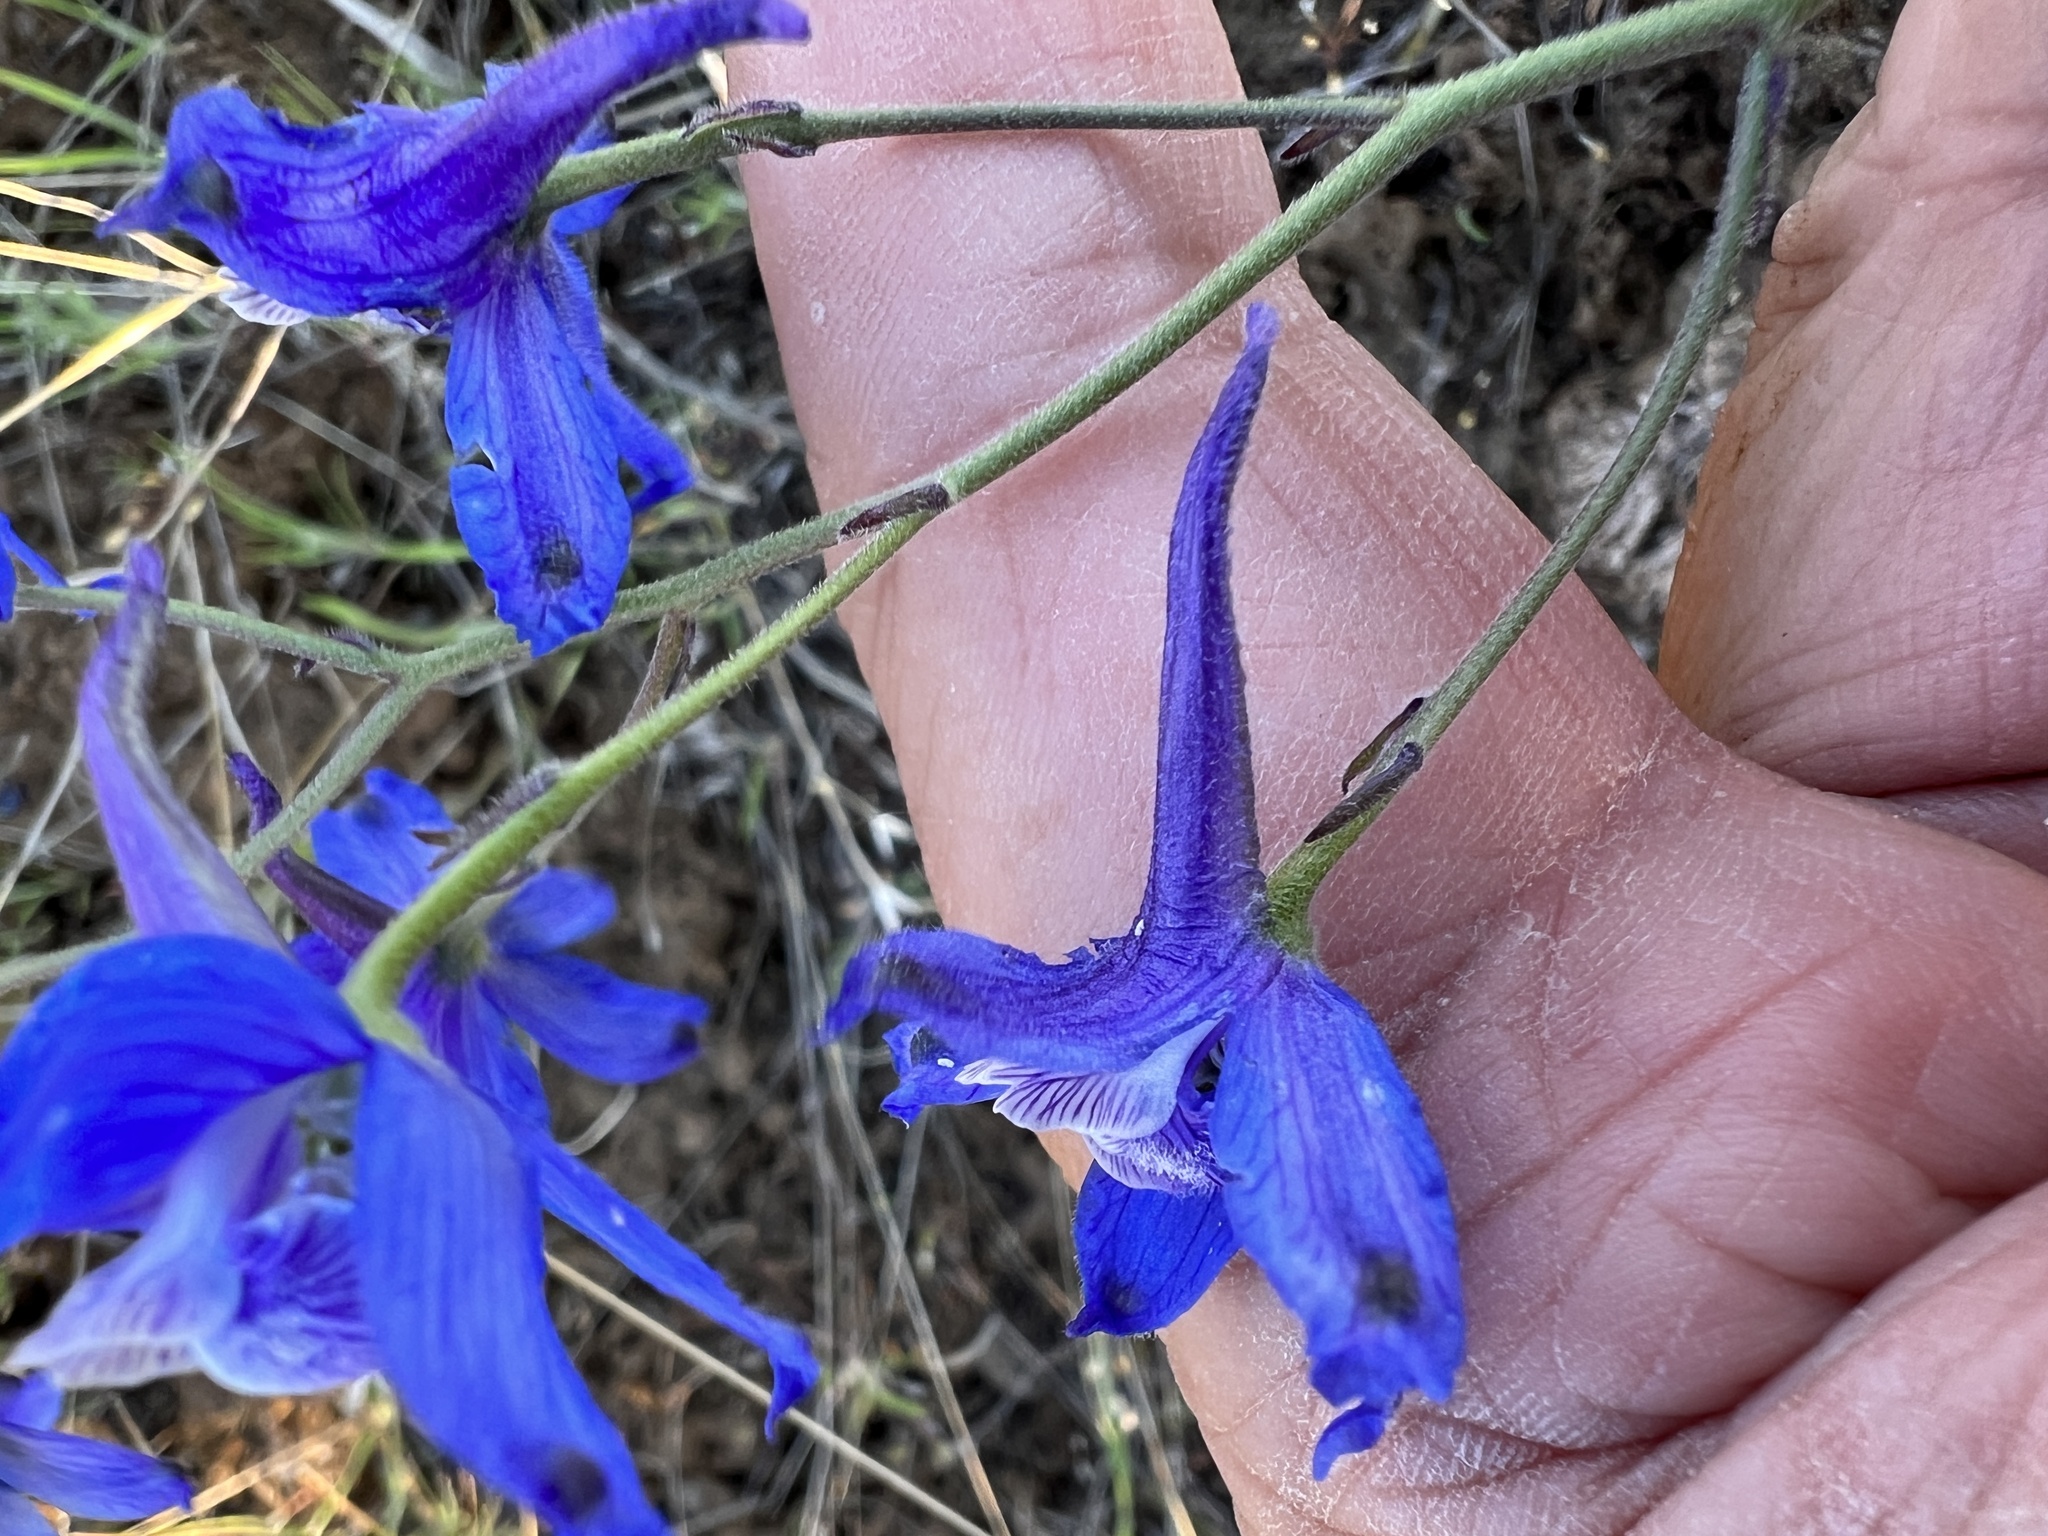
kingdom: Plantae
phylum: Tracheophyta
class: Magnoliopsida
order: Ranunculales
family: Ranunculaceae
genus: Delphinium
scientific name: Delphinium nuttallianum
